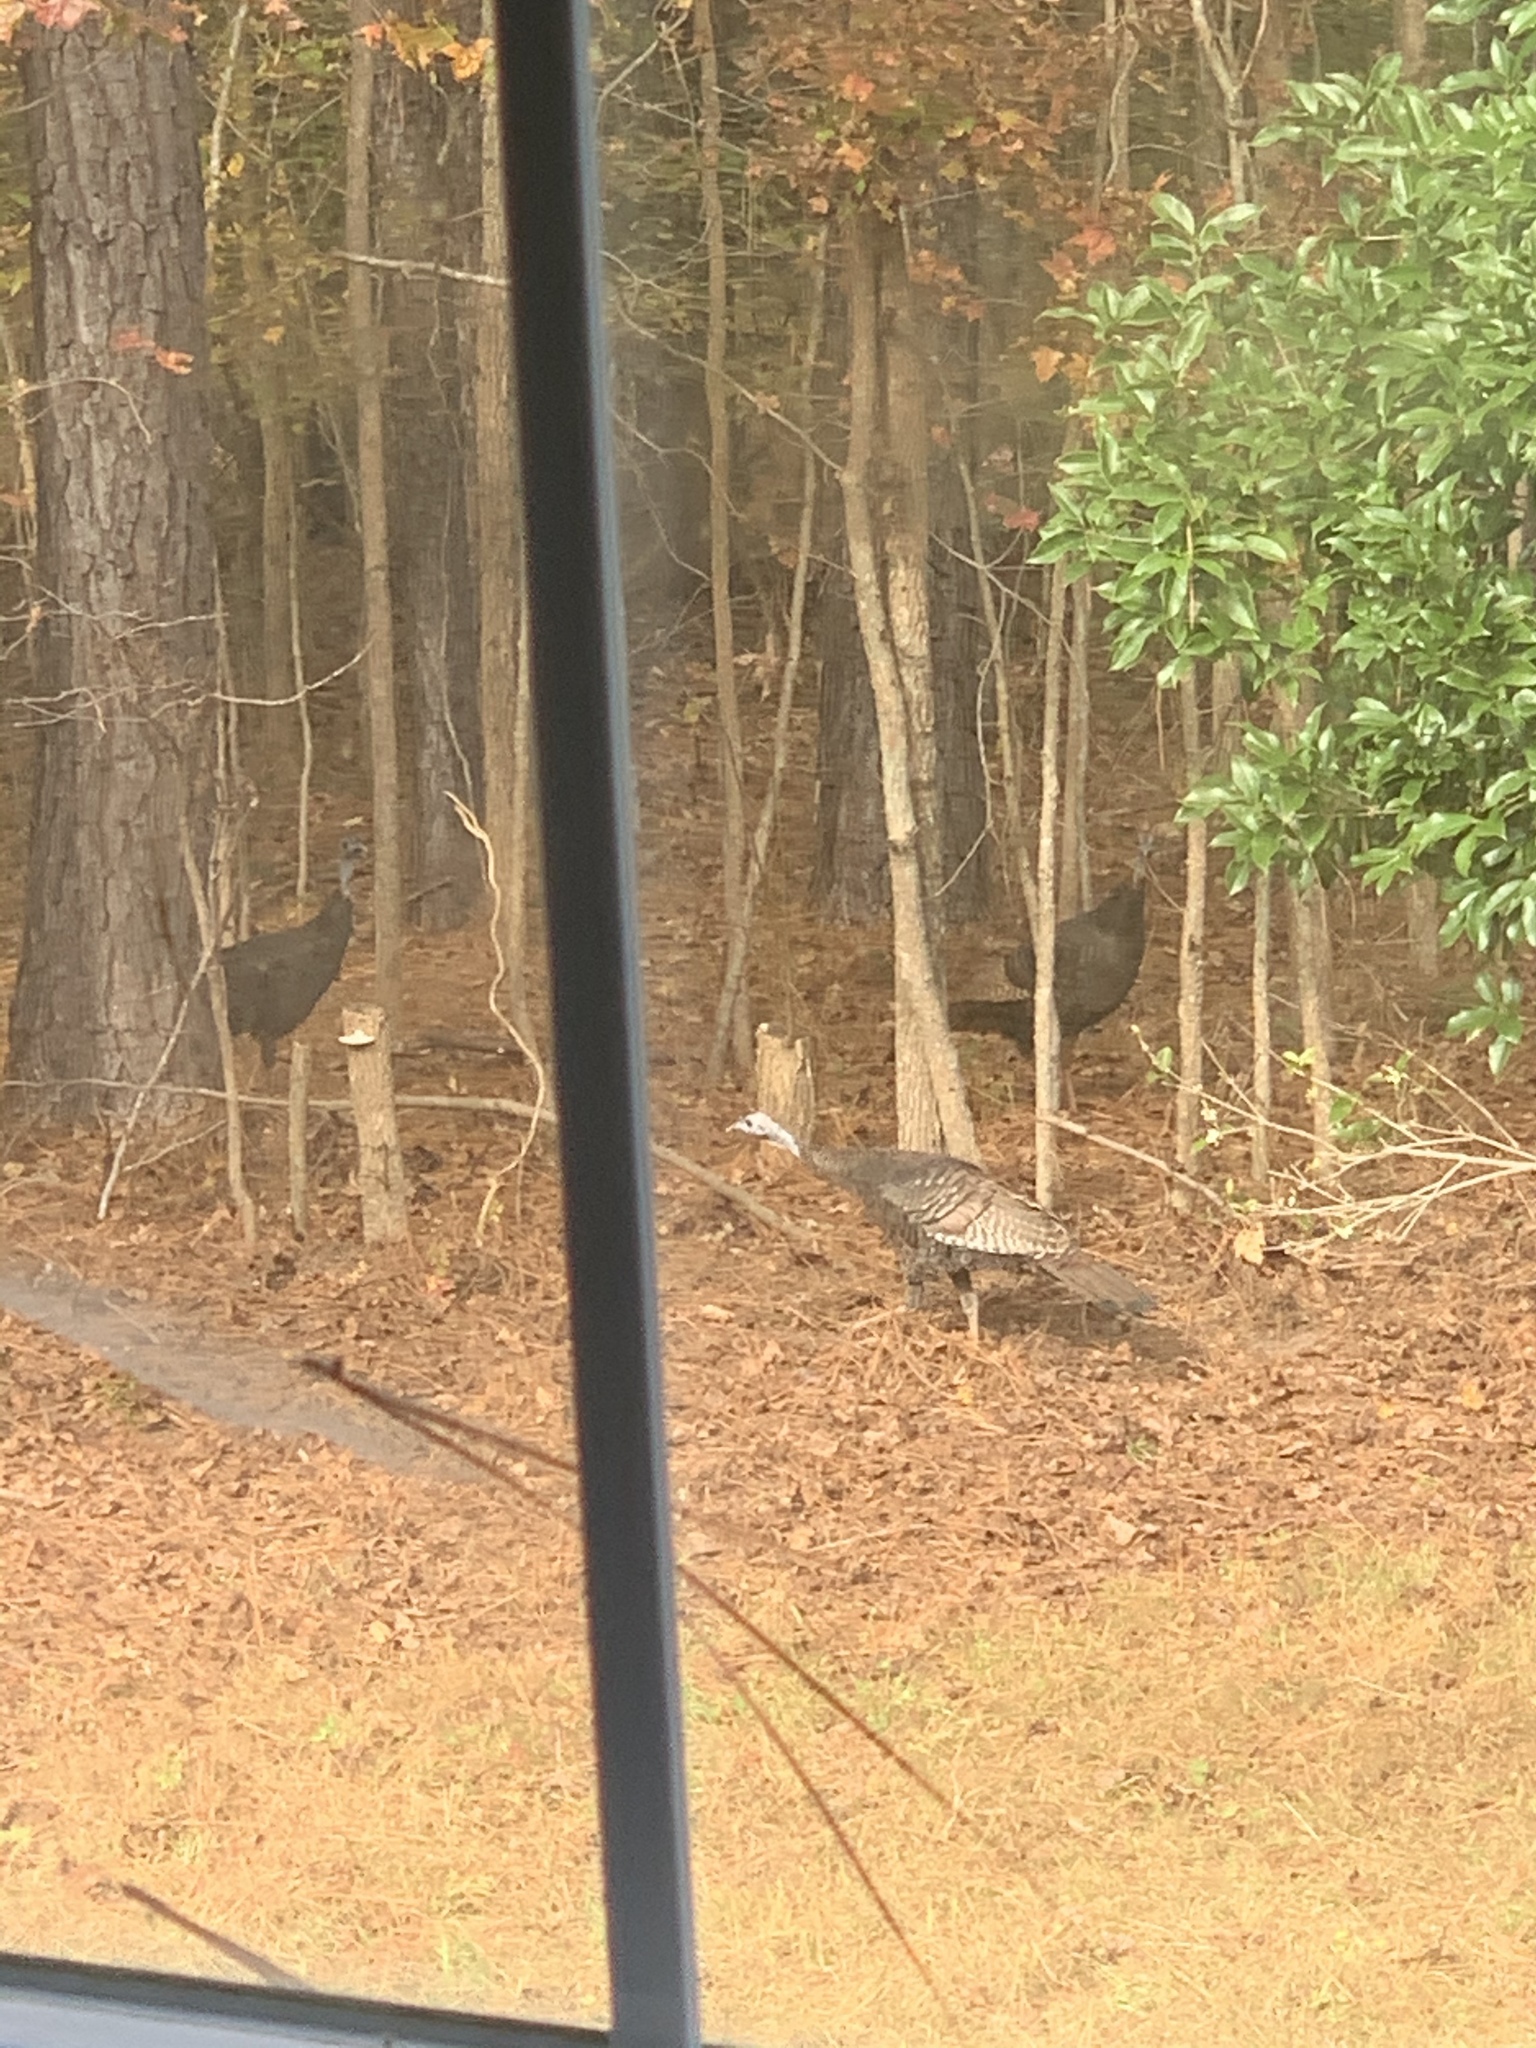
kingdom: Animalia
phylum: Chordata
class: Aves
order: Galliformes
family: Phasianidae
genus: Meleagris
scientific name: Meleagris gallopavo
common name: Wild turkey
